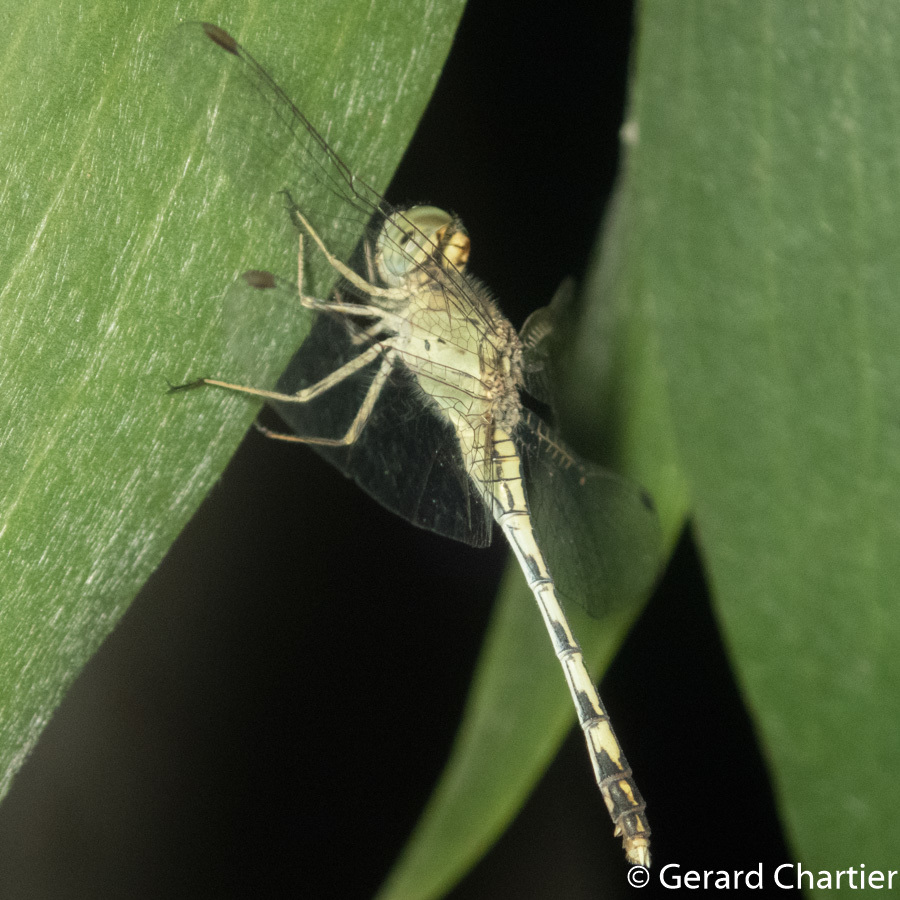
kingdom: Animalia
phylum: Arthropoda
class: Insecta
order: Odonata
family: Libellulidae
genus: Diplacodes
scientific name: Diplacodes trivialis
